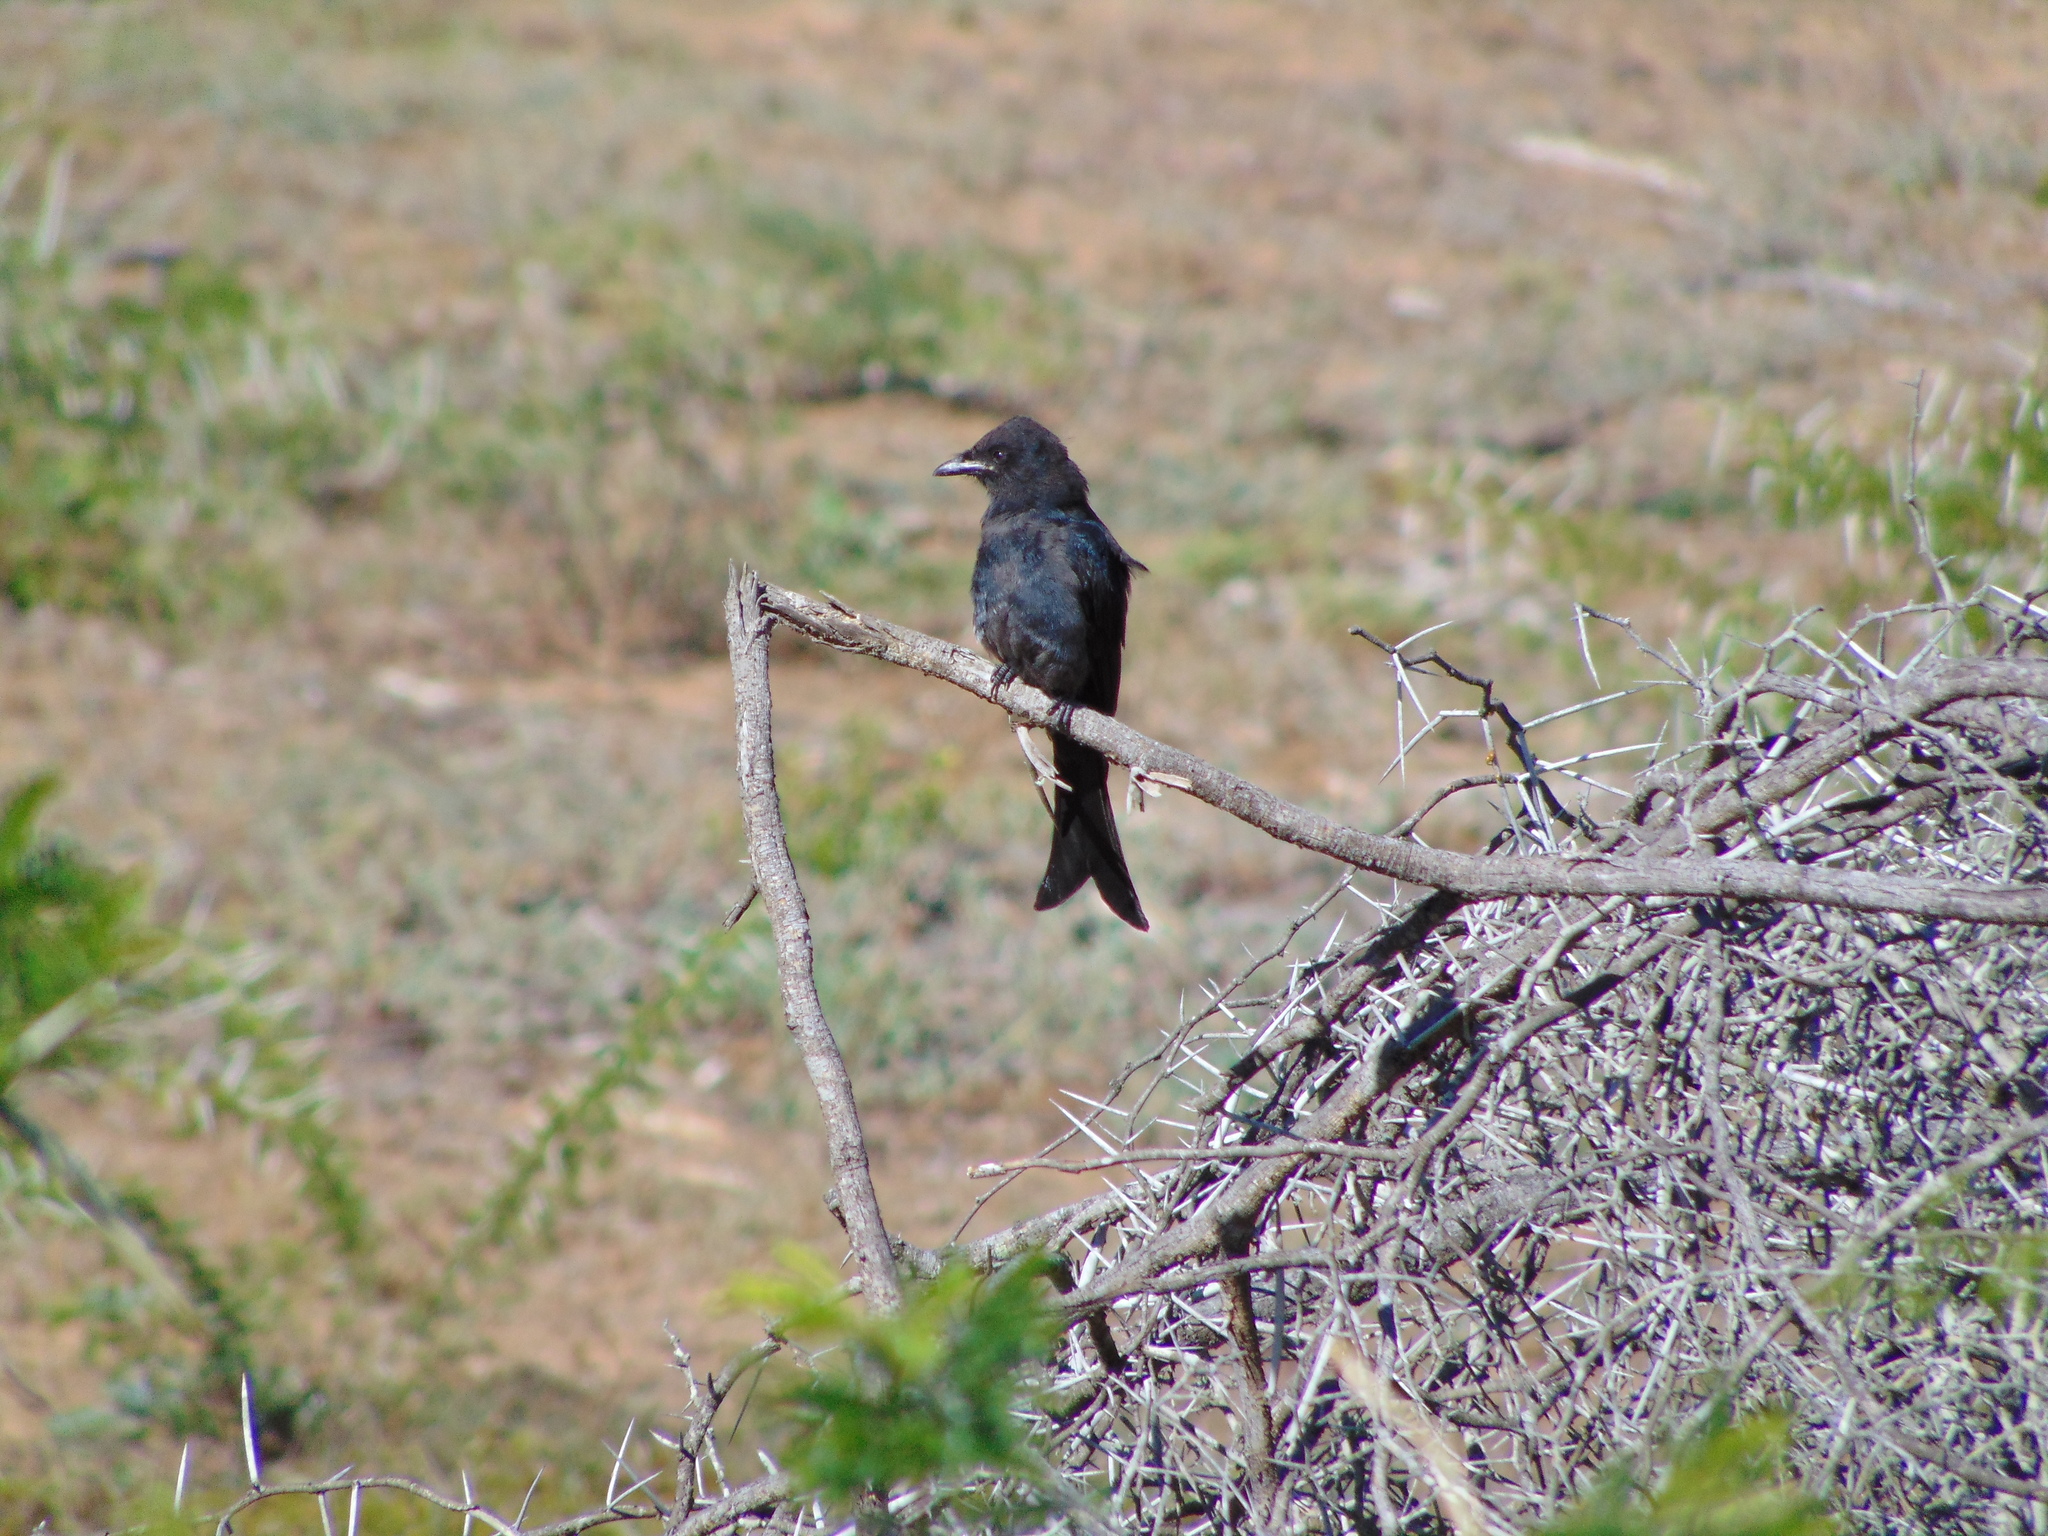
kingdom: Animalia
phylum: Chordata
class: Aves
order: Passeriformes
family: Dicruridae
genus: Dicrurus
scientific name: Dicrurus adsimilis
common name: Fork-tailed drongo
